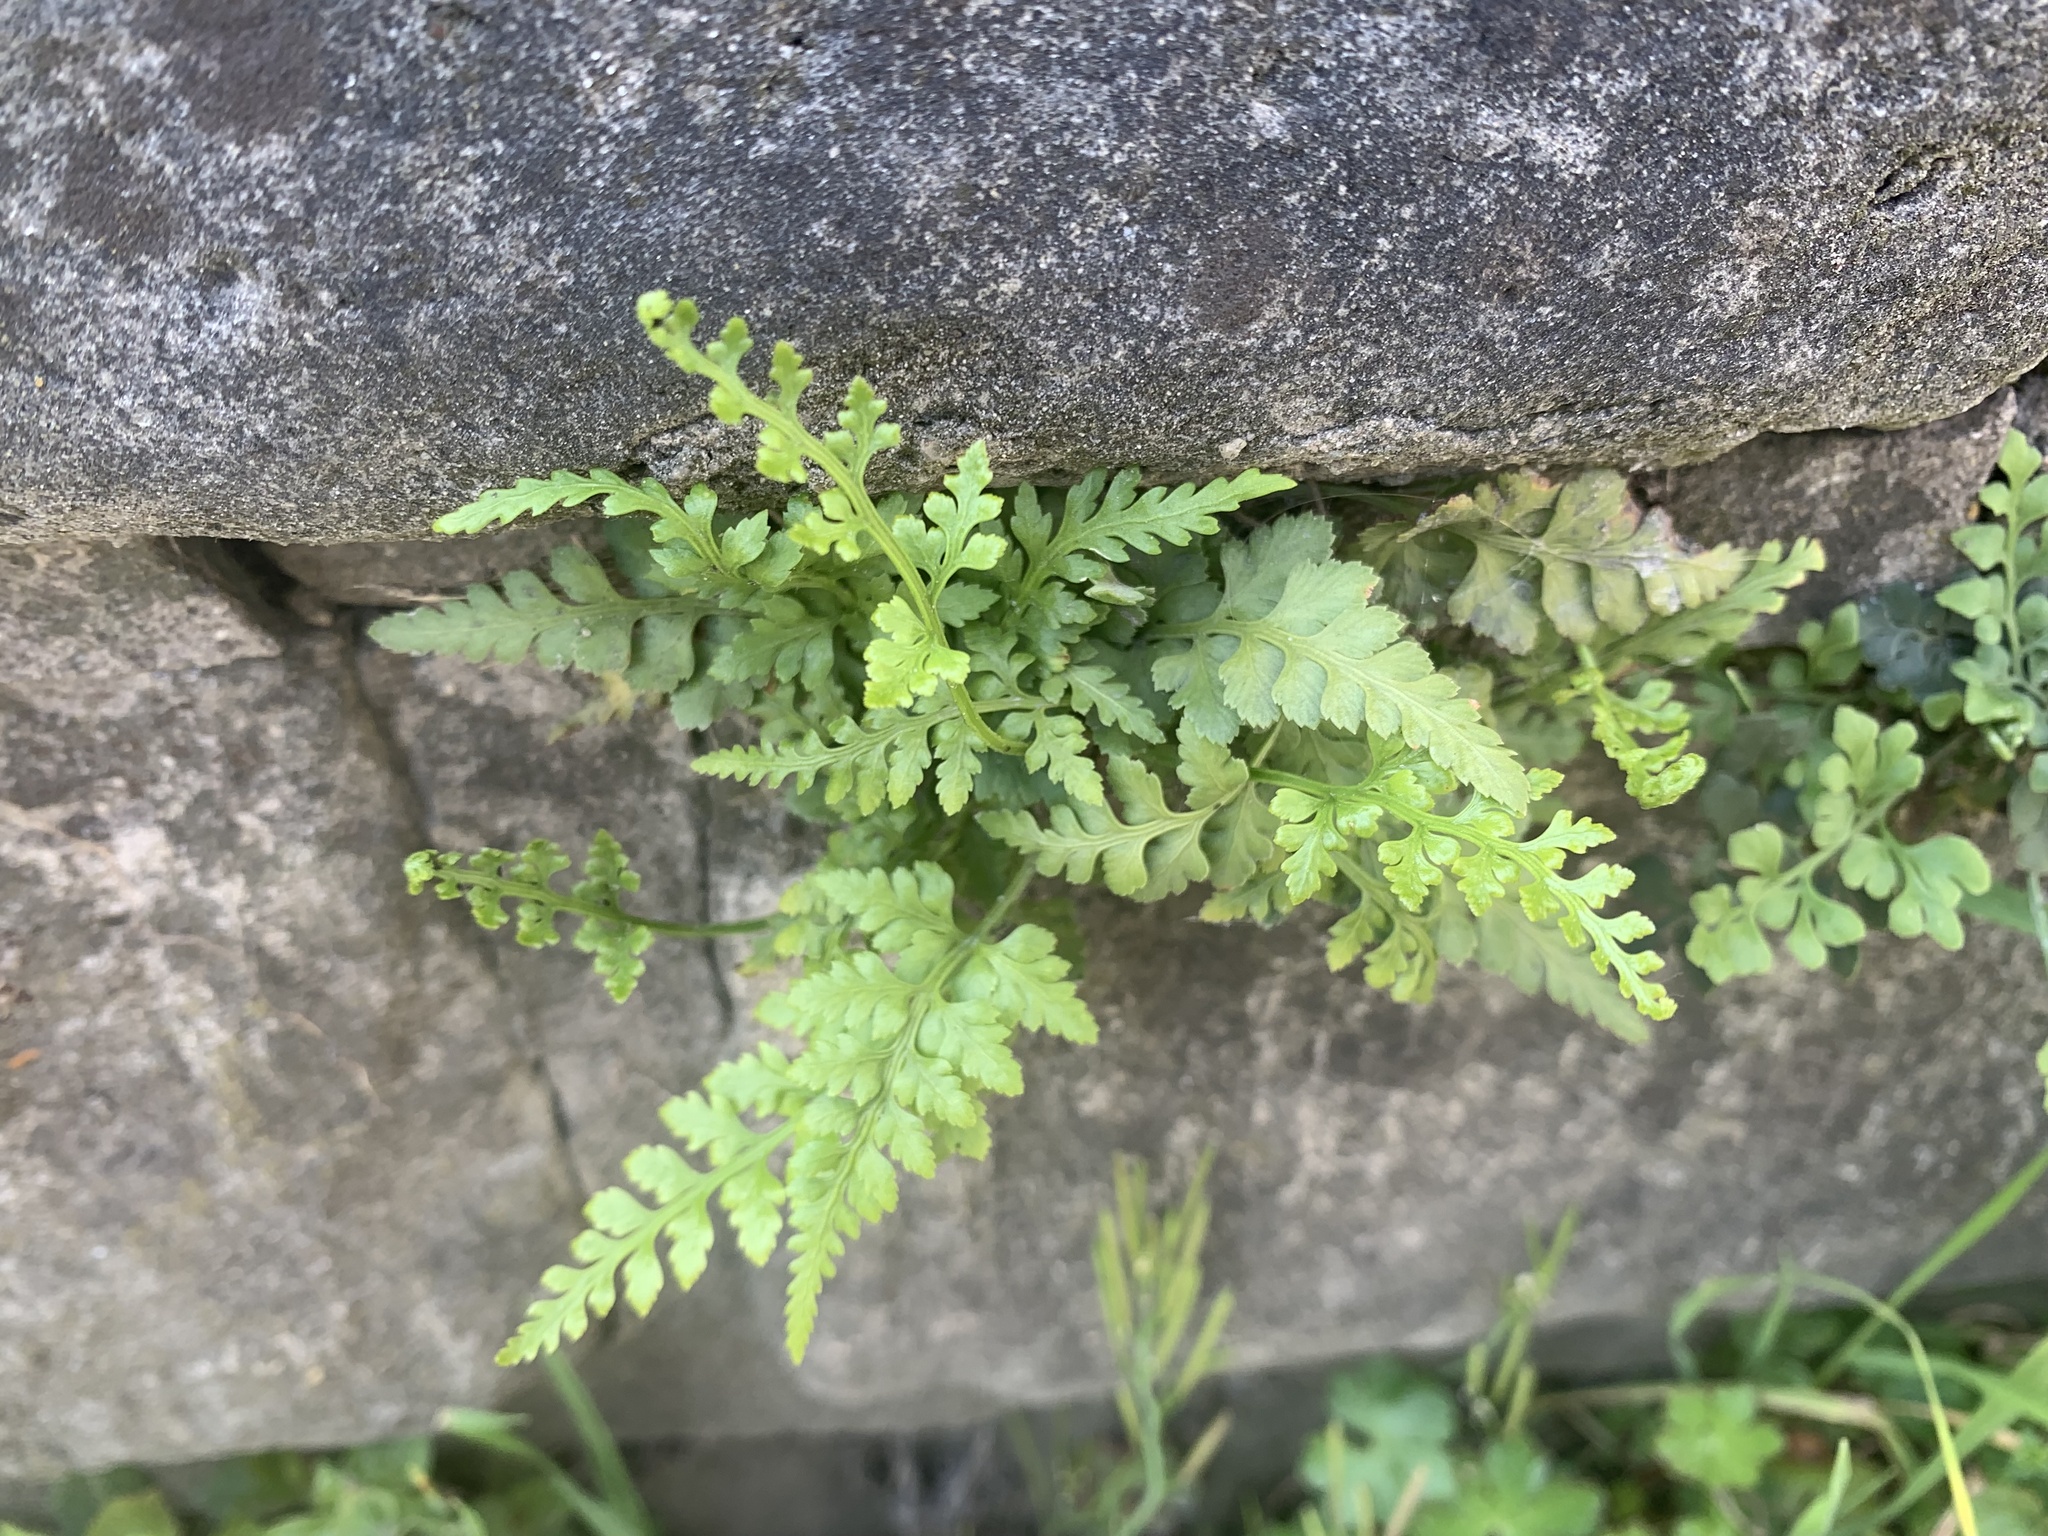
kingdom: Plantae
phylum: Tracheophyta
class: Polypodiopsida
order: Polypodiales
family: Aspleniaceae
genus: Asplenium
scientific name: Asplenium adiantum-nigrum
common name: Black spleenwort
